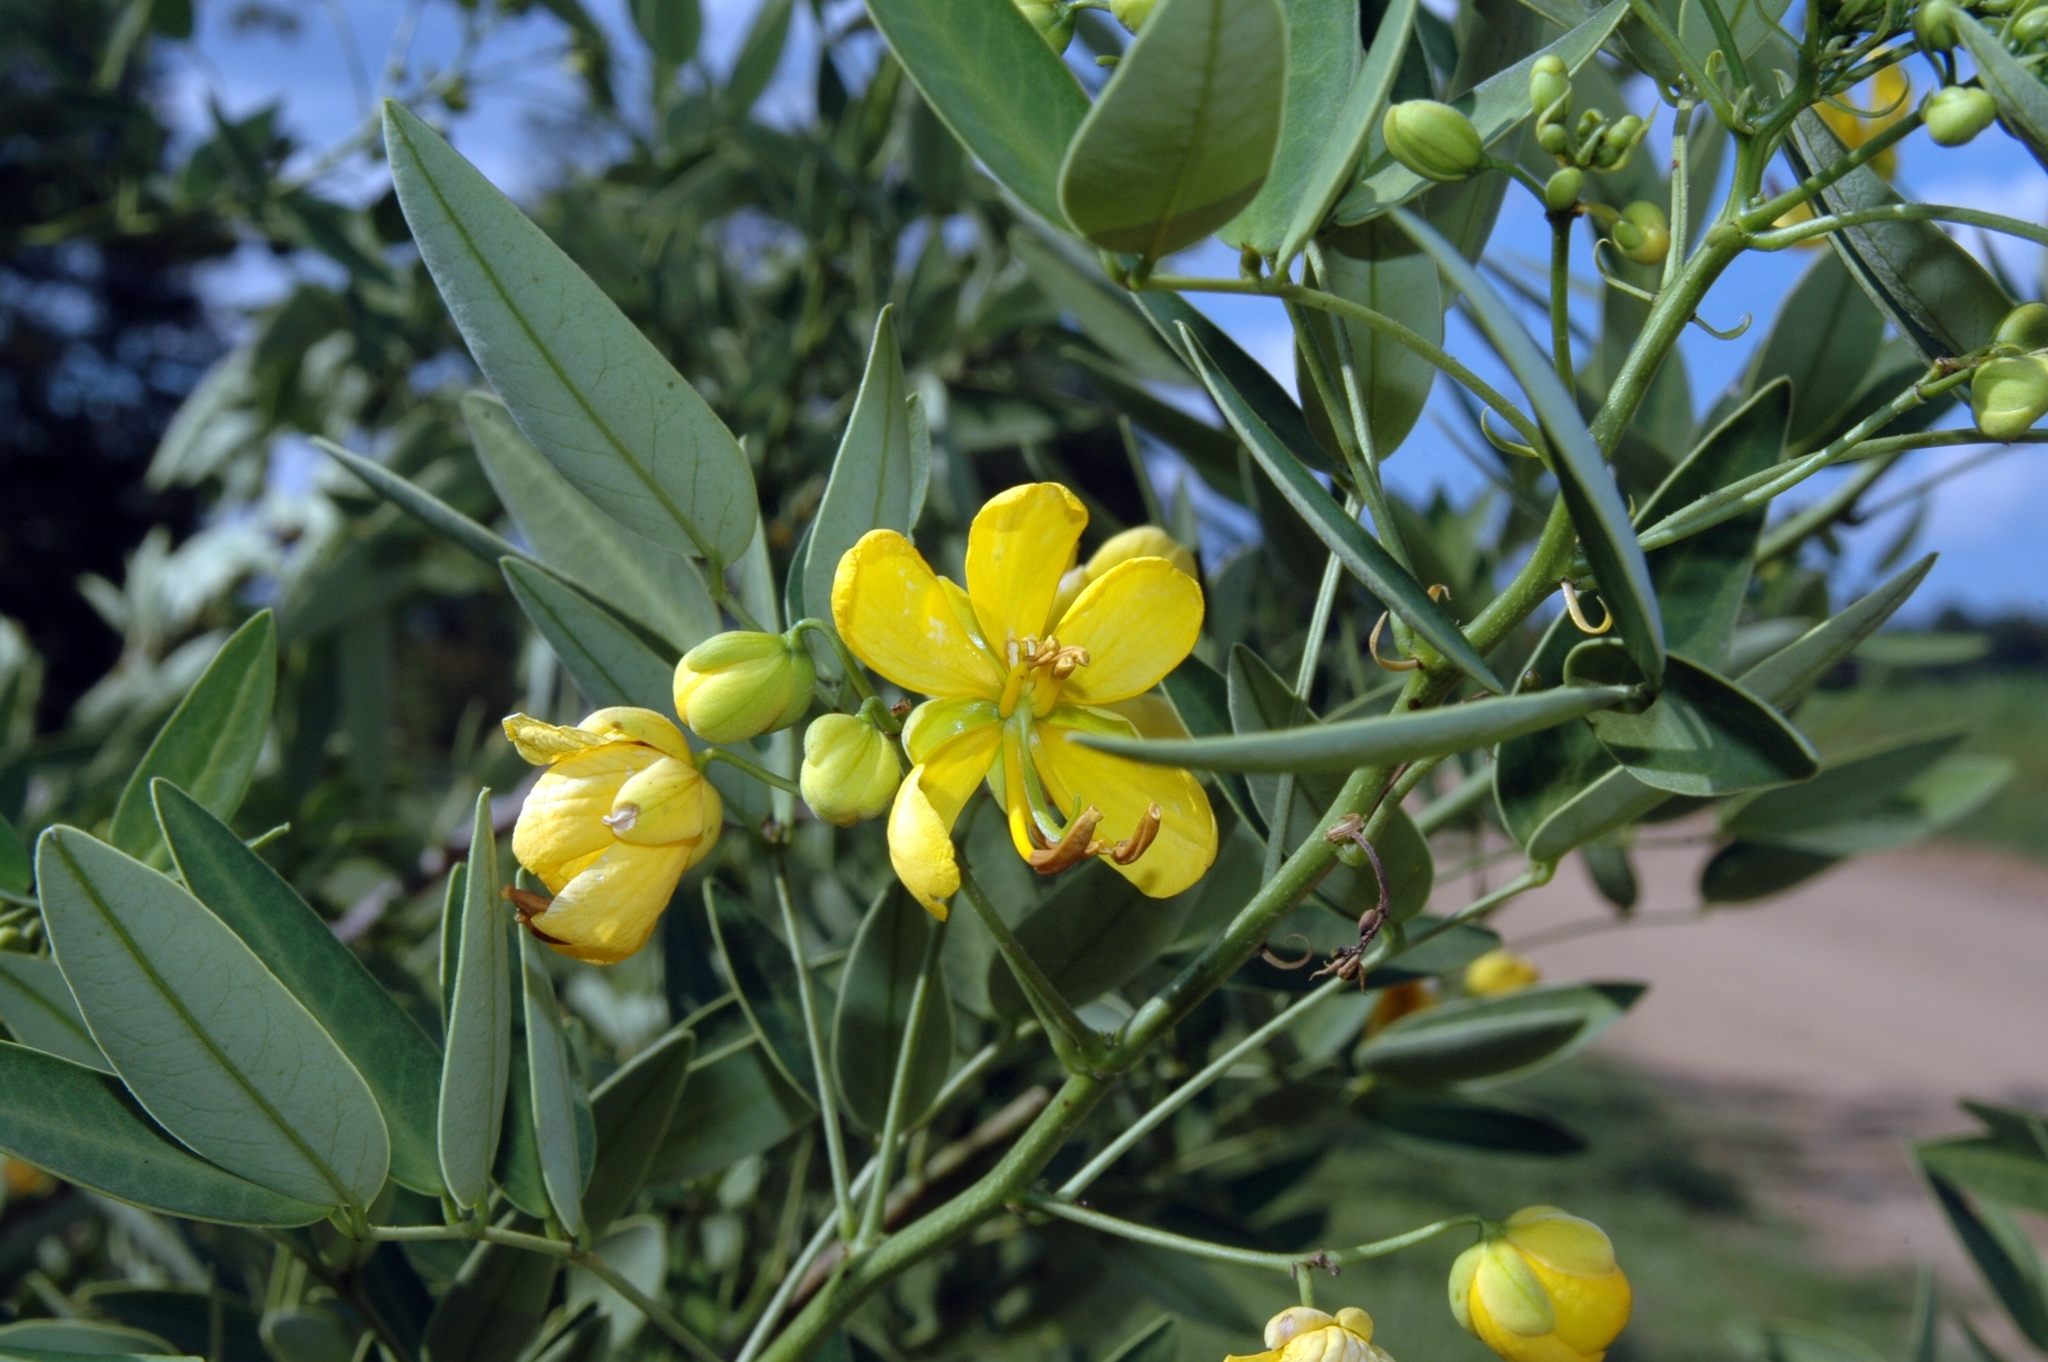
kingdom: Plantae
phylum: Tracheophyta
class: Magnoliopsida
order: Fabales
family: Fabaceae
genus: Senna
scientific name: Senna corymbosa
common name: Argentine senna
